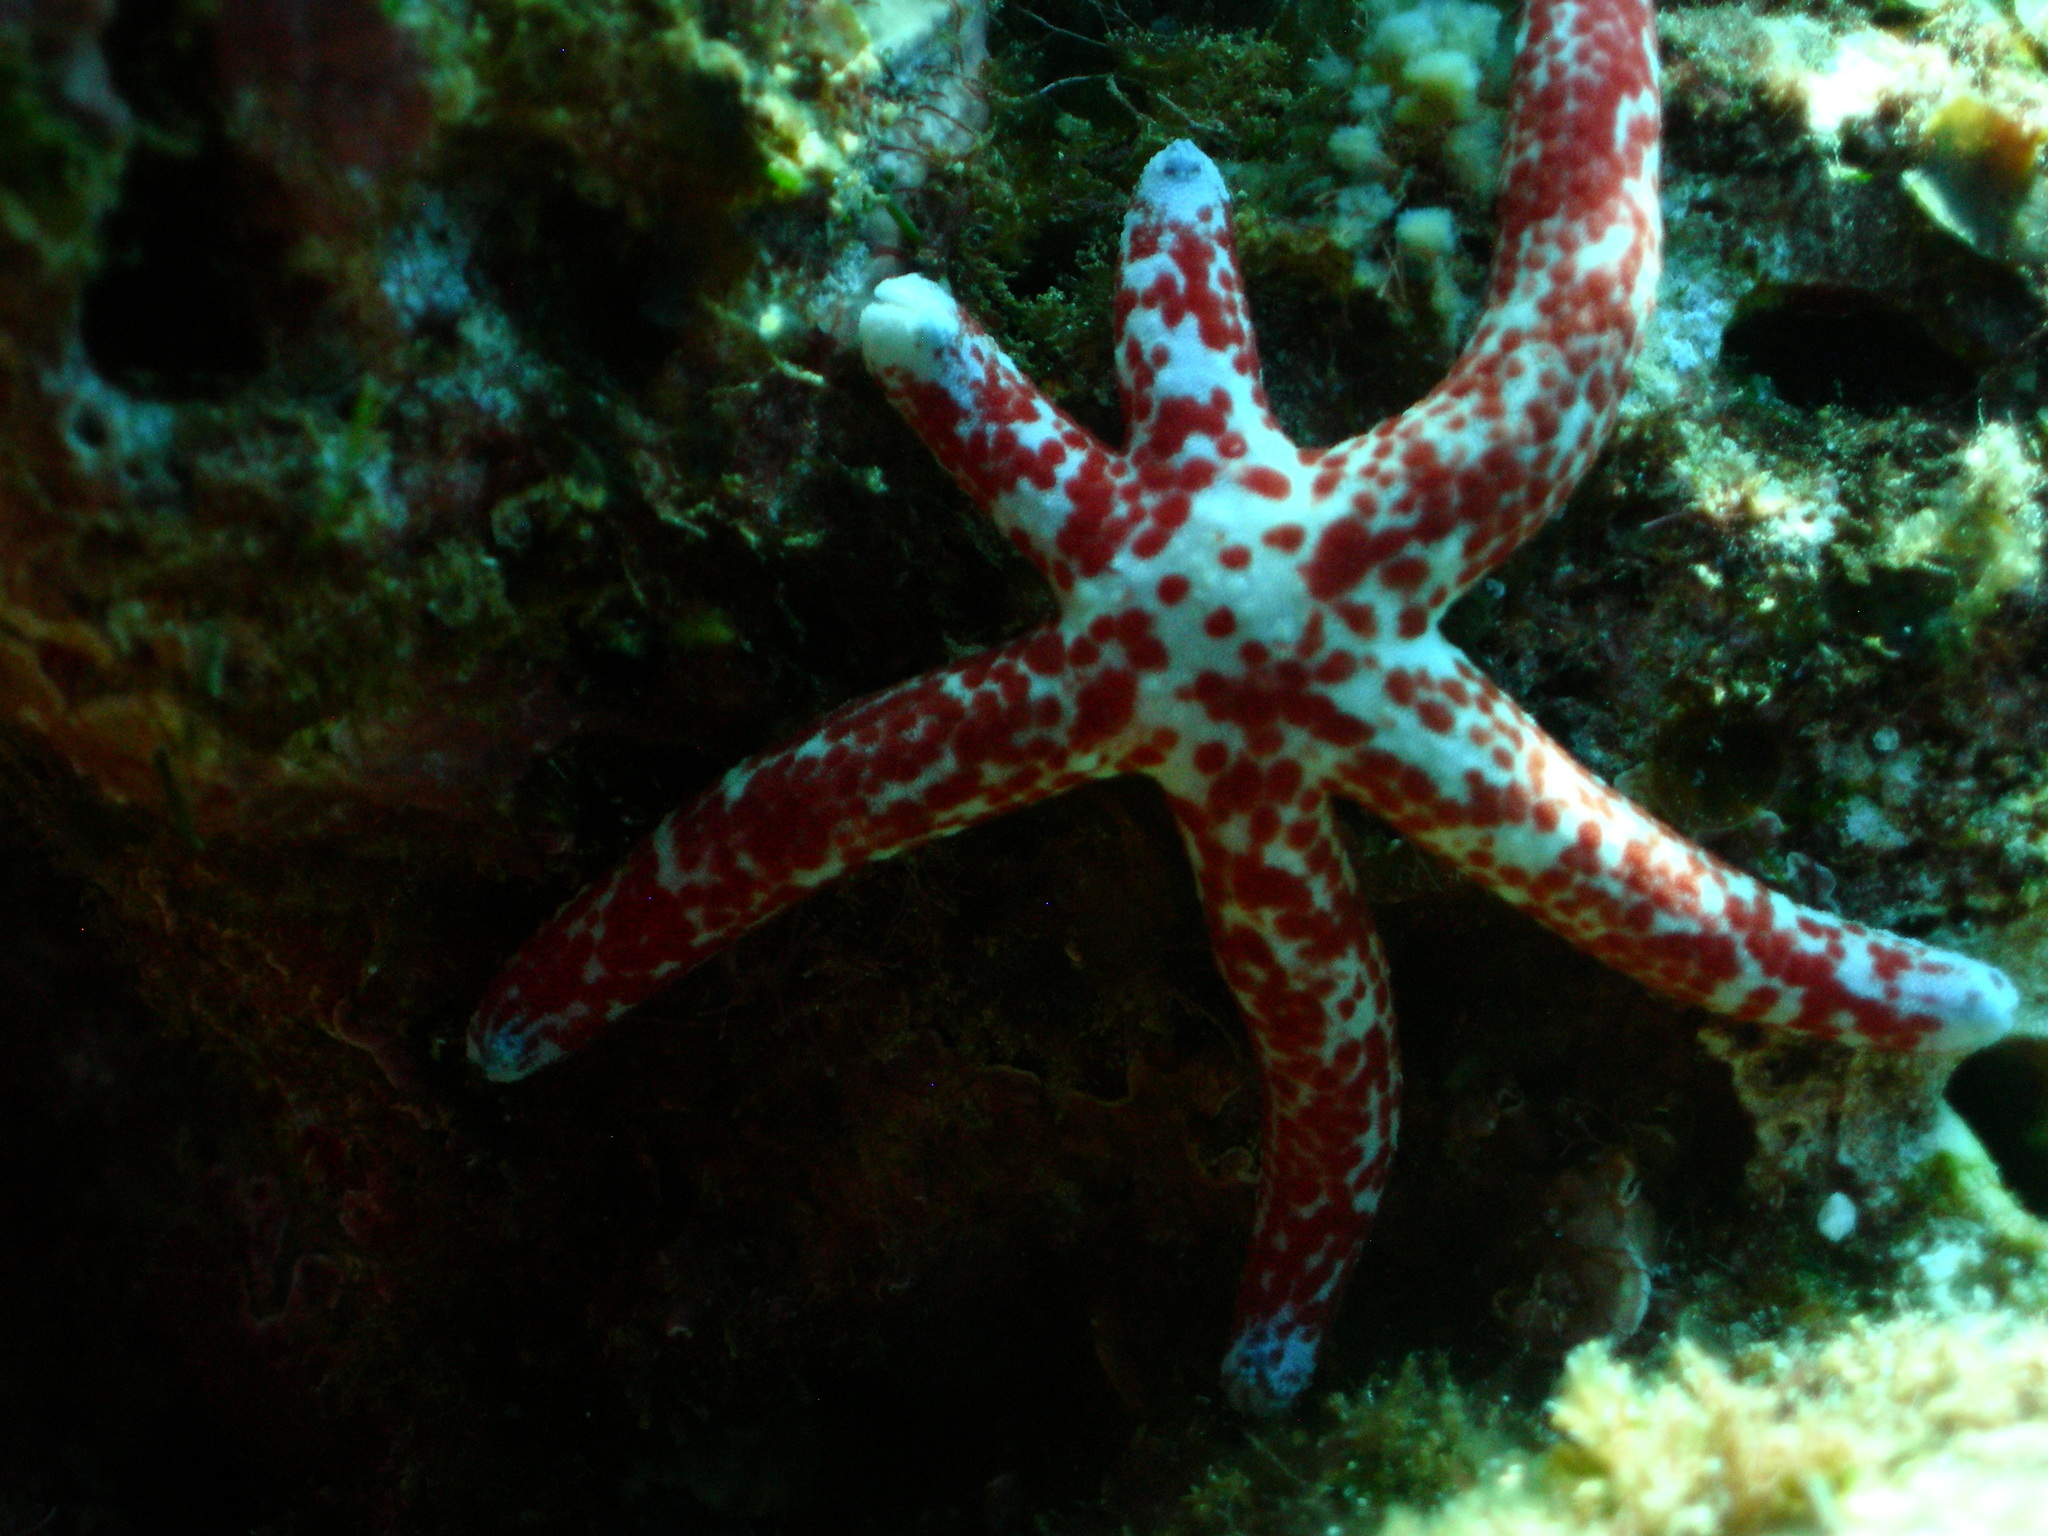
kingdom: Animalia
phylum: Echinodermata
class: Asteroidea
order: Valvatida
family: Ophidiasteridae
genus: Linckia
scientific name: Linckia multifora
